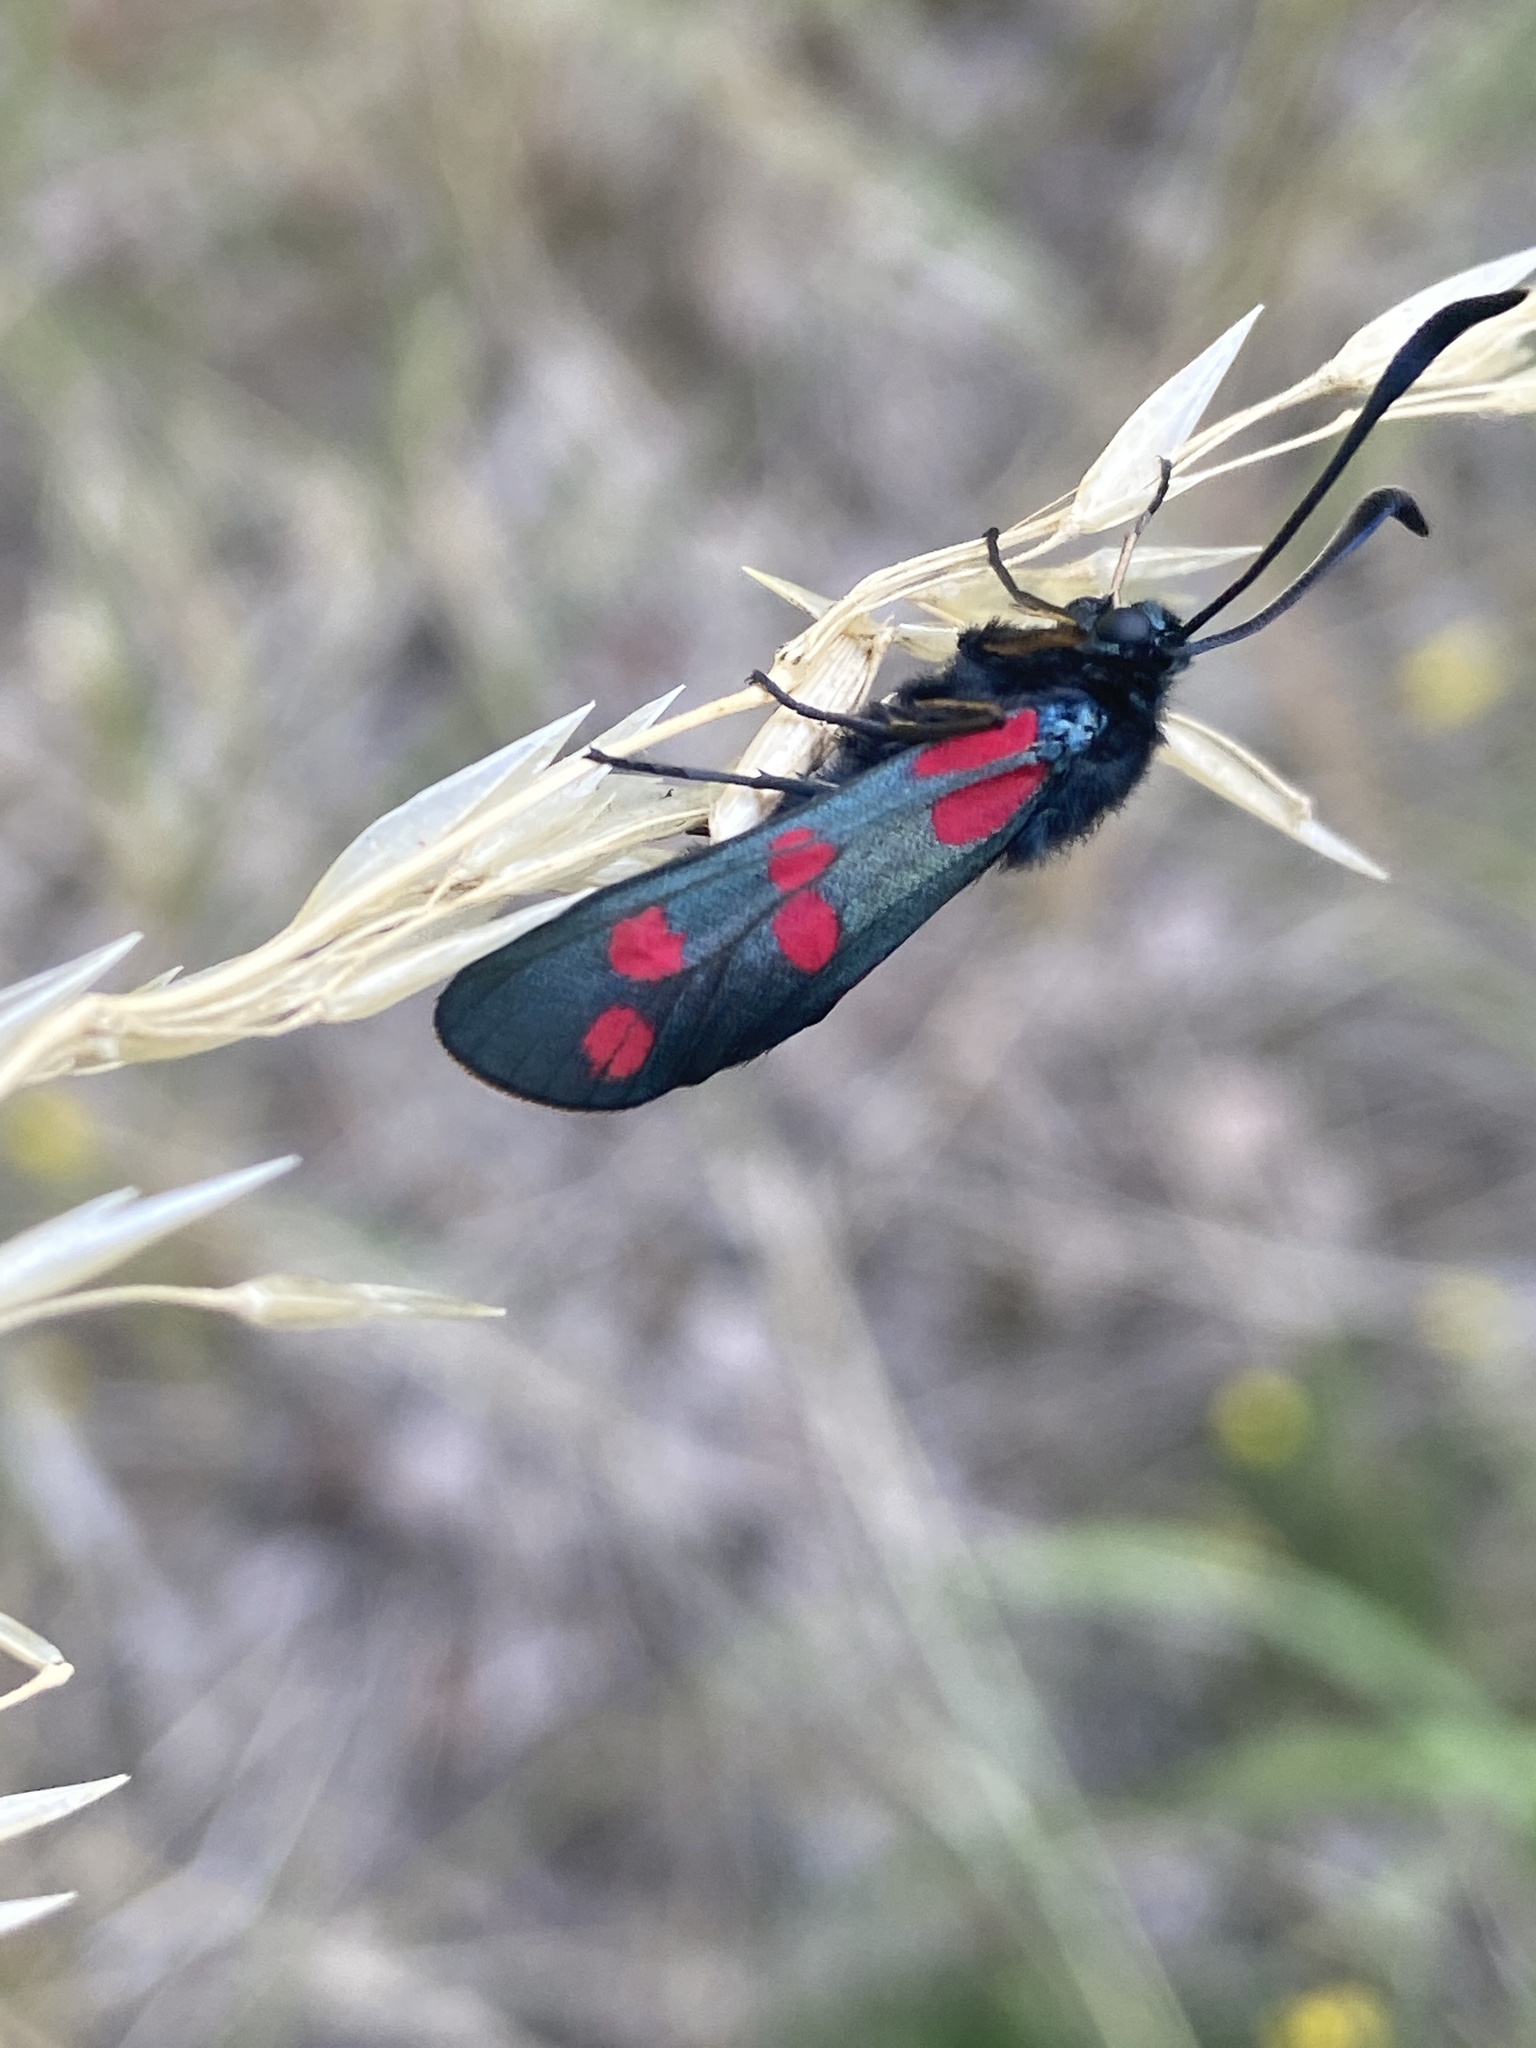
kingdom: Animalia
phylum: Arthropoda
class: Insecta
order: Lepidoptera
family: Zygaenidae
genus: Zygaena
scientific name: Zygaena filipendulae
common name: Six-spot burnet
